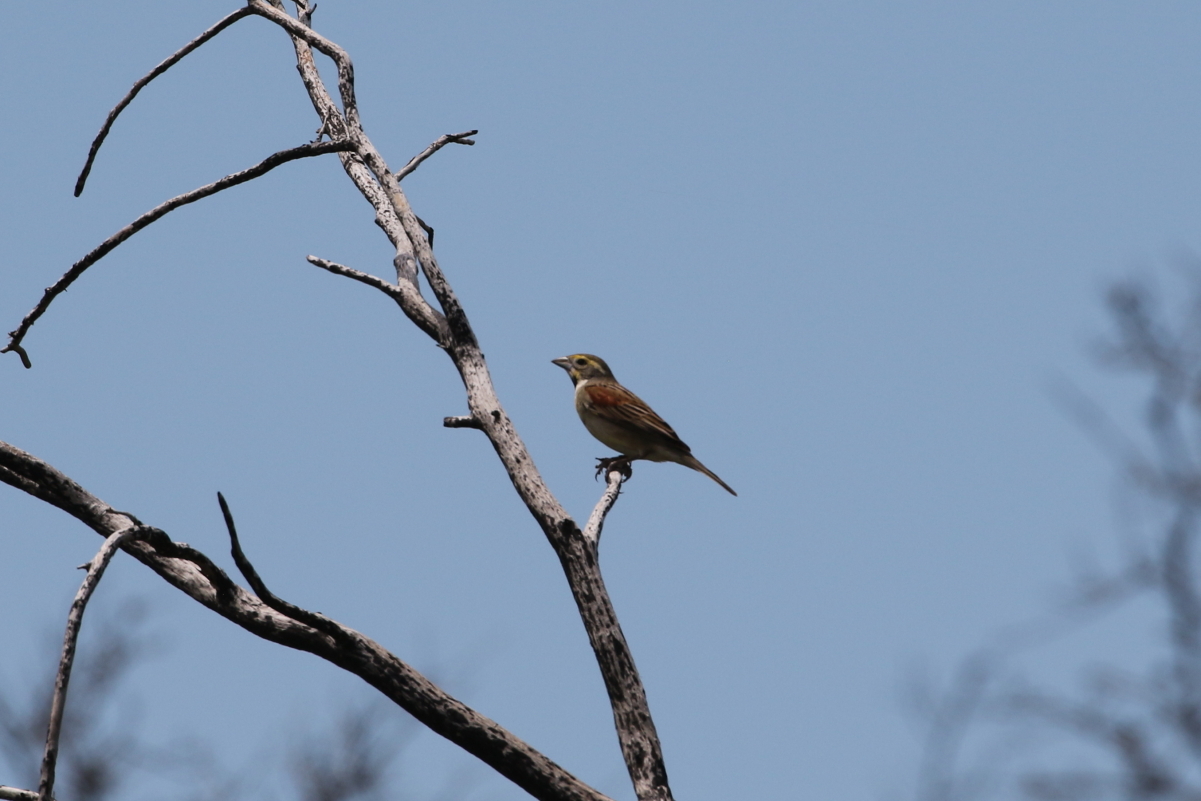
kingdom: Animalia
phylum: Chordata
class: Aves
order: Passeriformes
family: Cardinalidae
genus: Spiza
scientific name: Spiza americana
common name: Dickcissel
